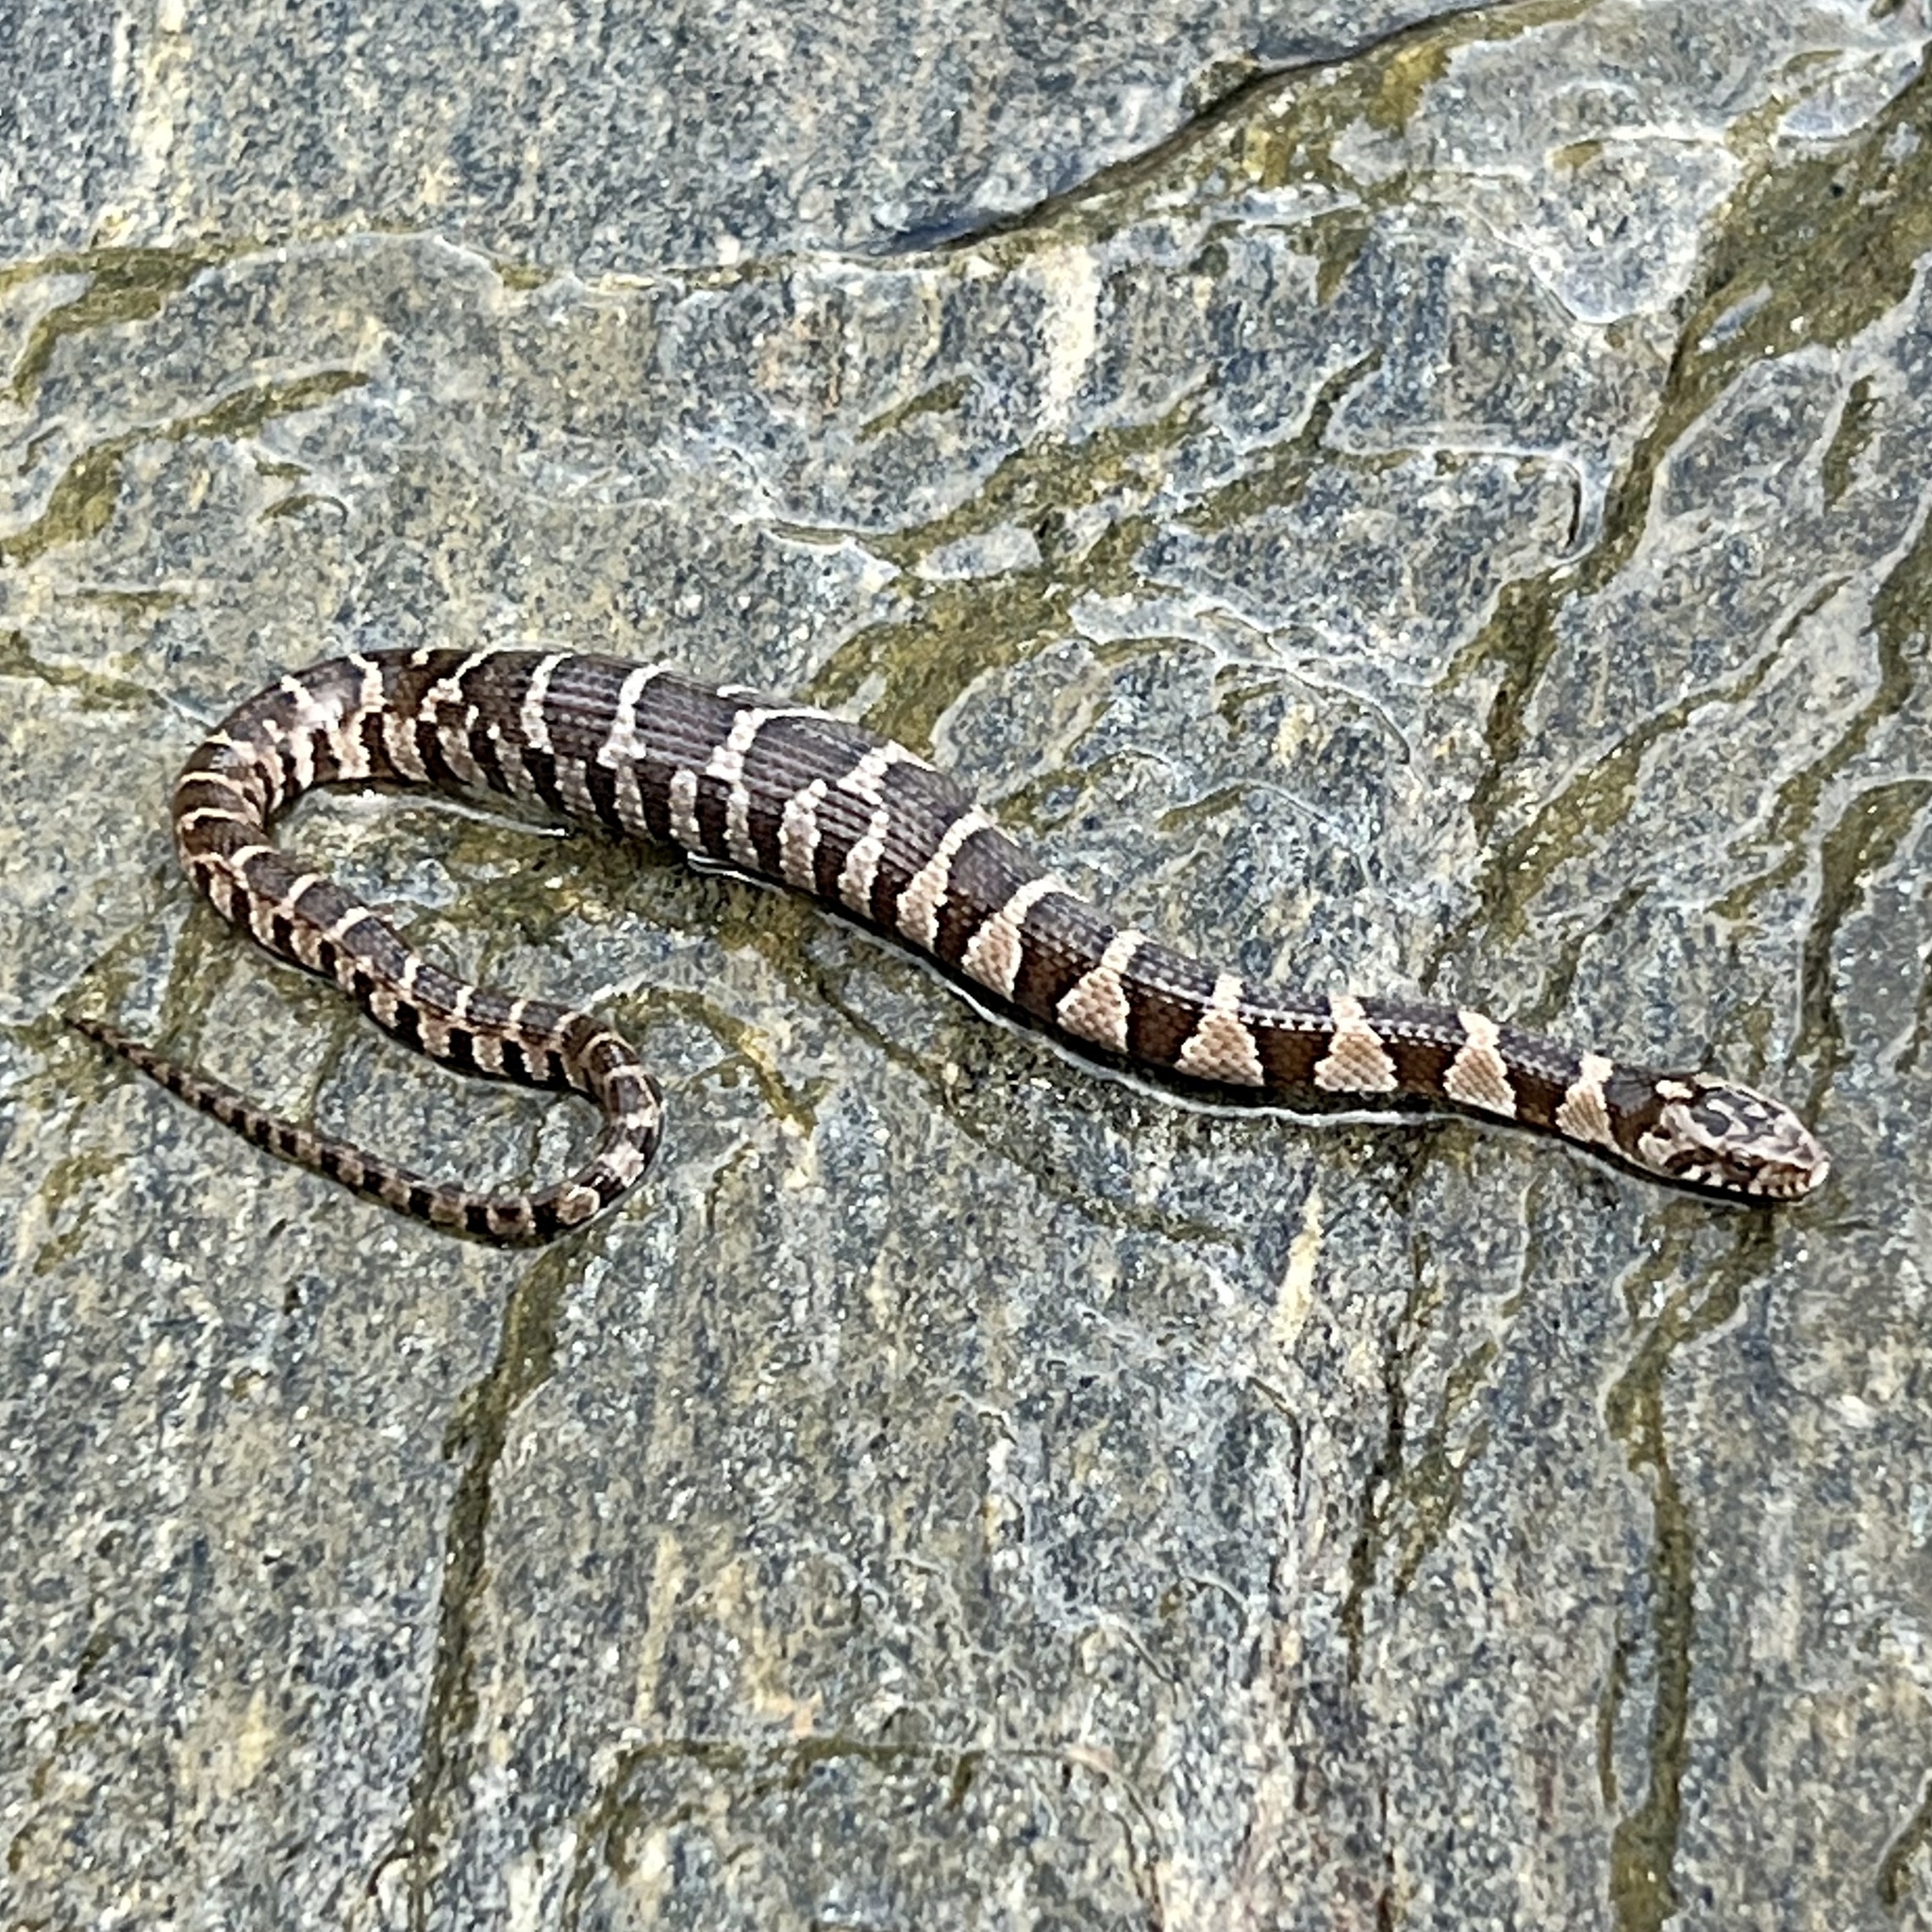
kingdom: Animalia
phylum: Chordata
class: Squamata
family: Colubridae
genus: Nerodia
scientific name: Nerodia sipedon
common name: Northern water snake
